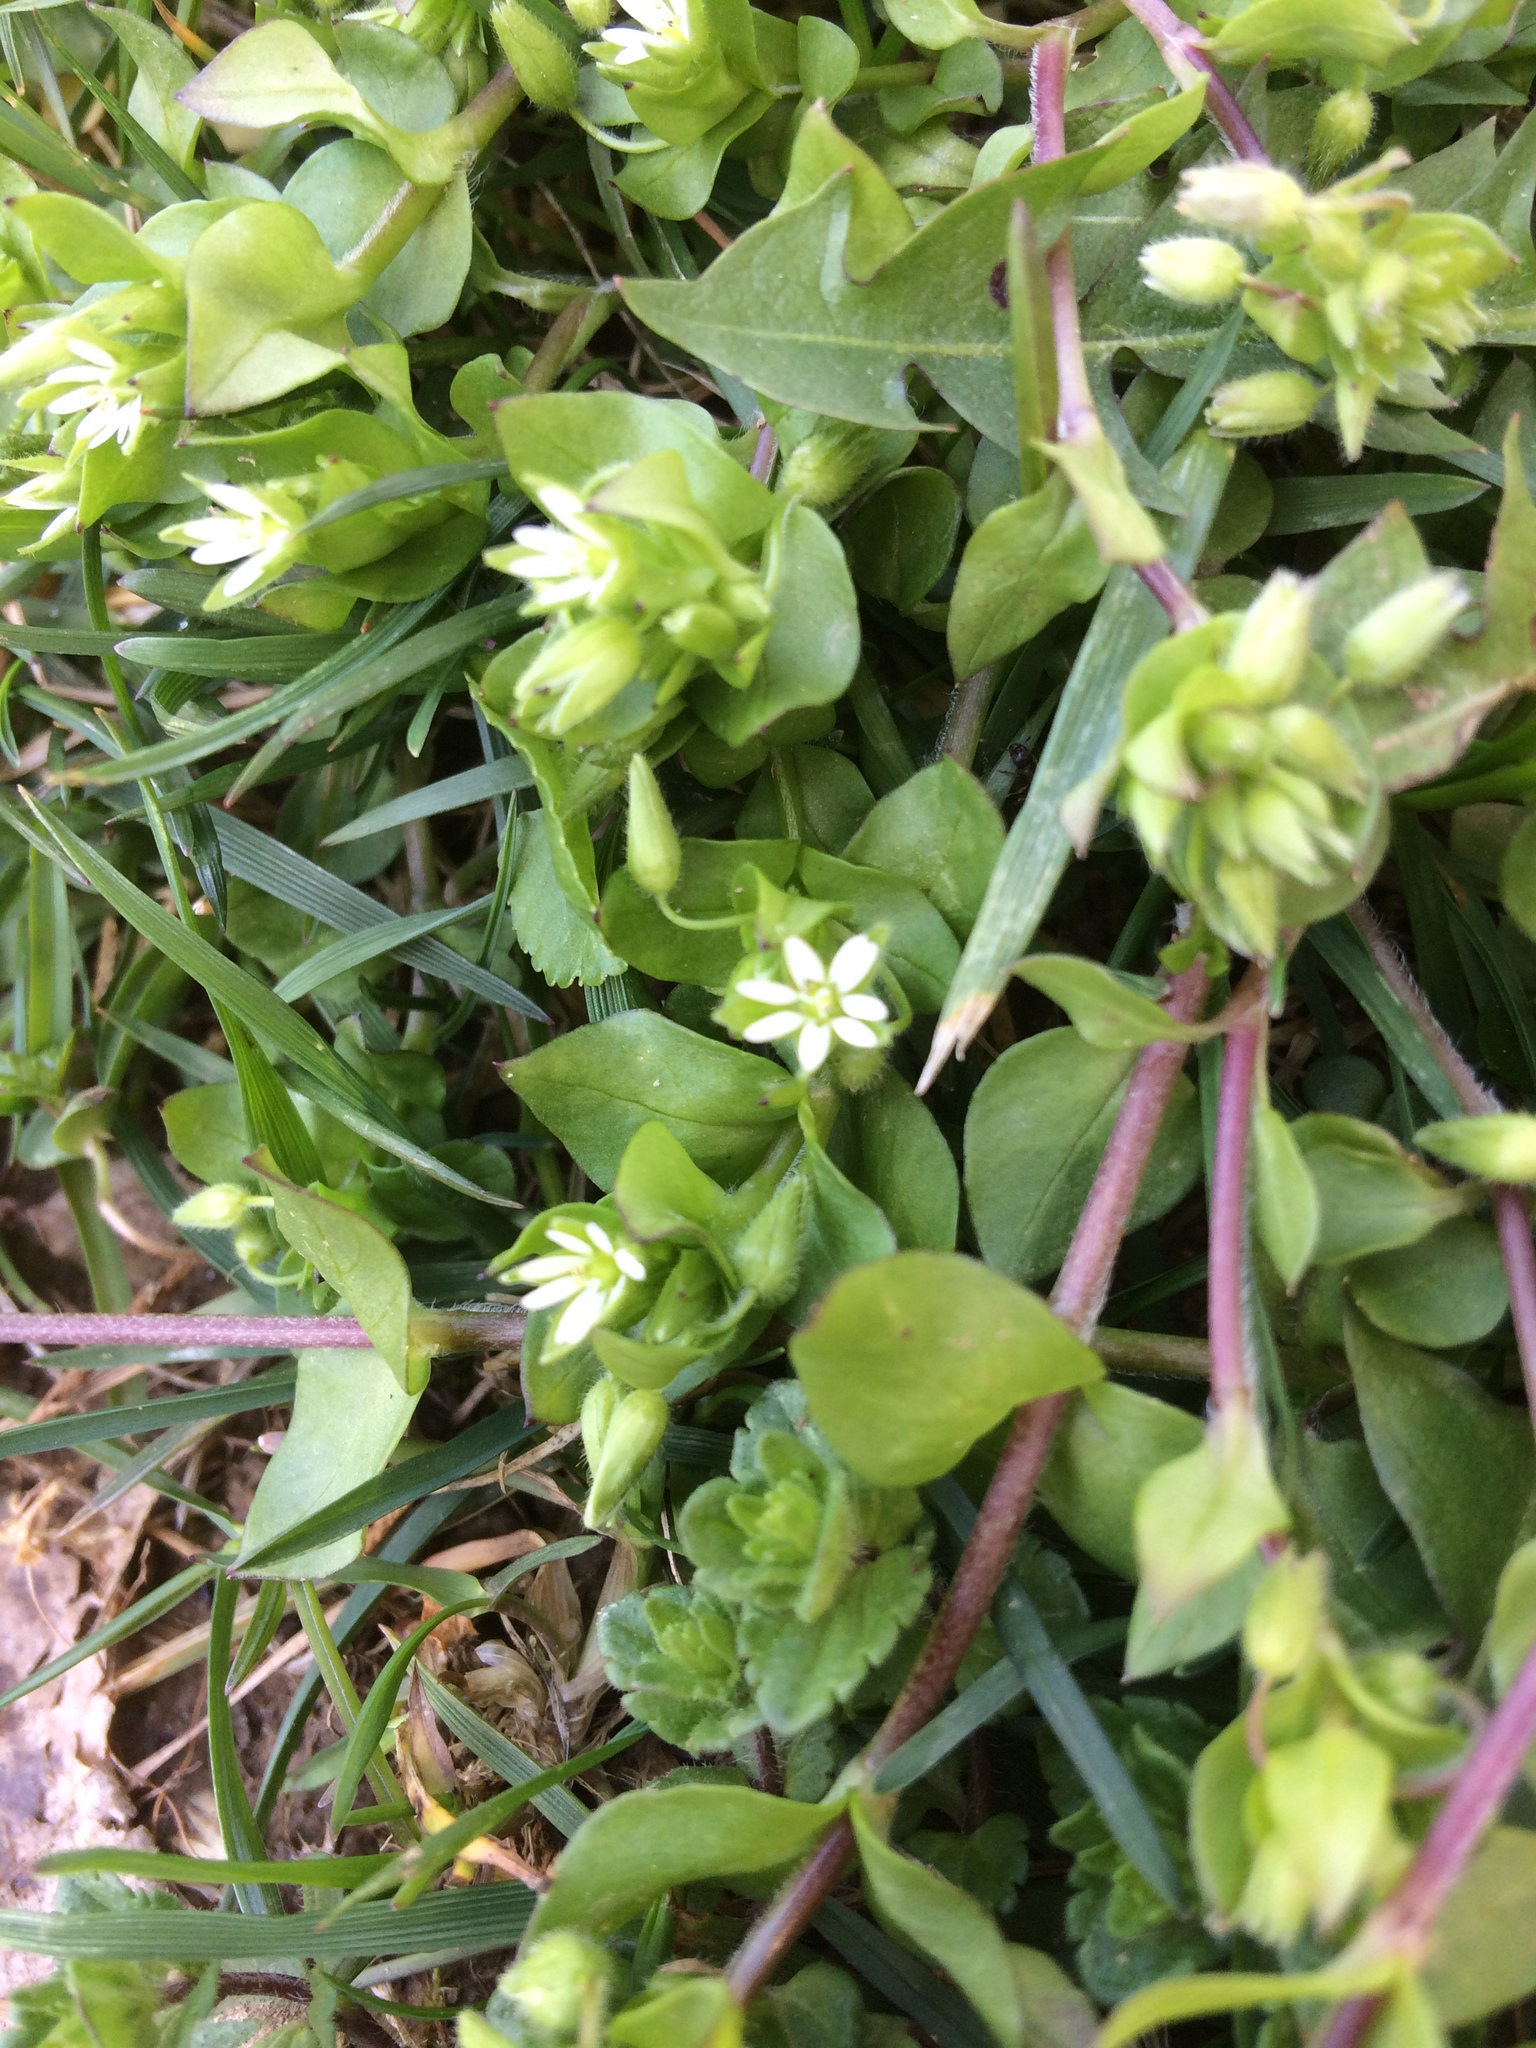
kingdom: Plantae
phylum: Tracheophyta
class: Magnoliopsida
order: Caryophyllales
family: Caryophyllaceae
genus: Stellaria
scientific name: Stellaria media
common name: Common chickweed
